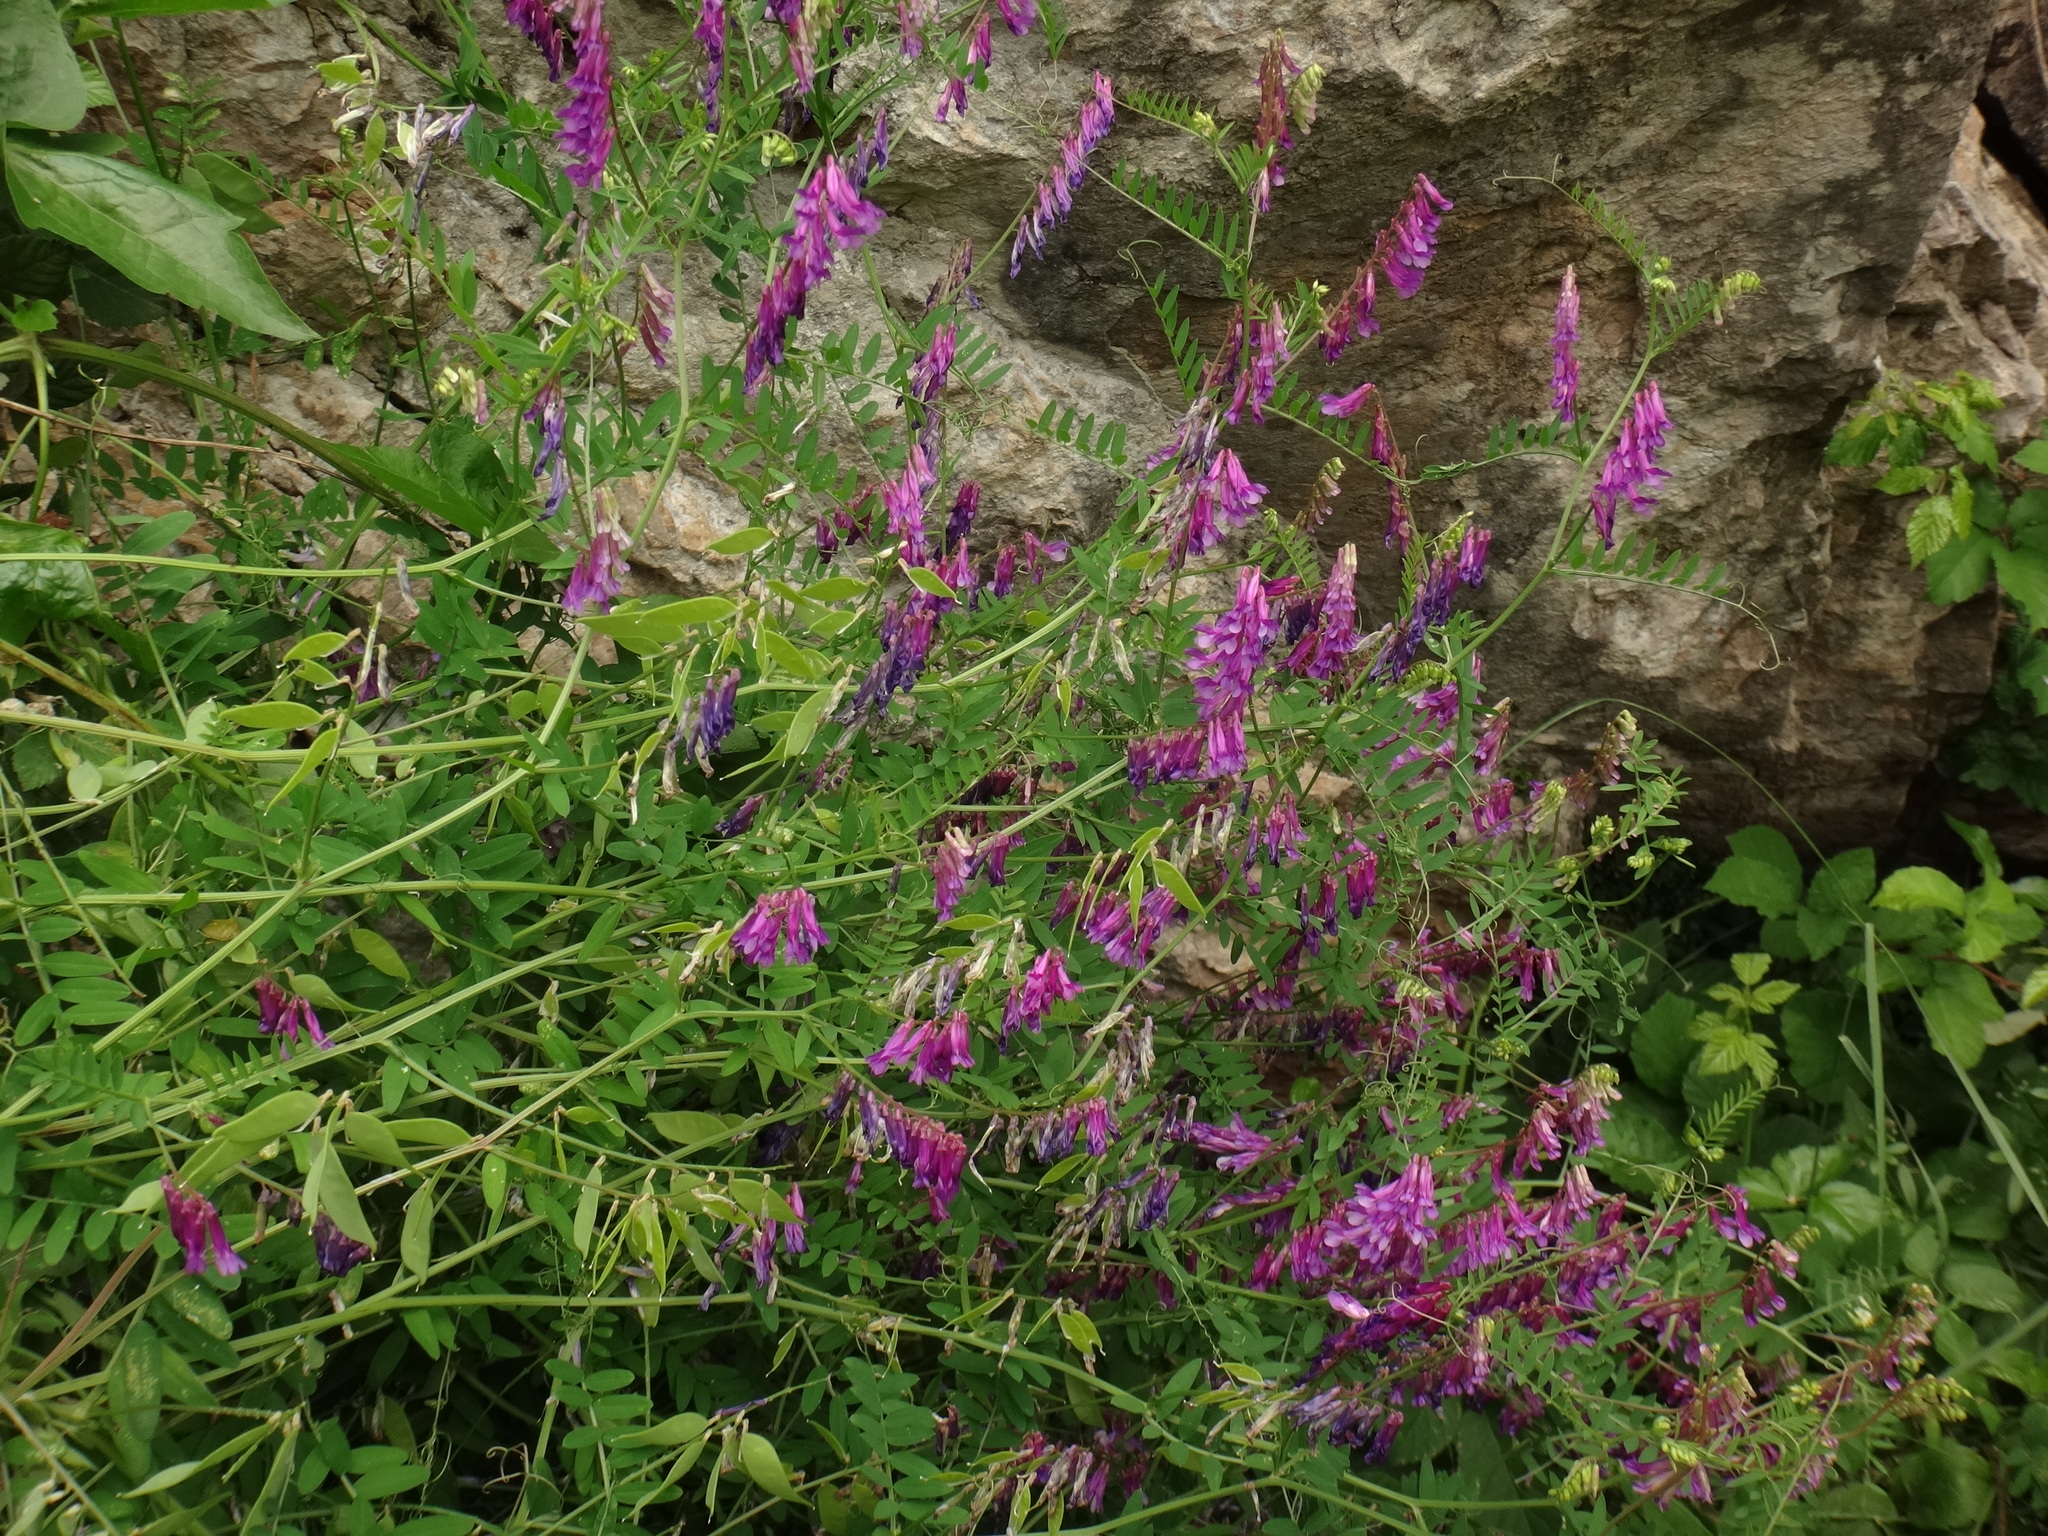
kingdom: Plantae
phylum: Tracheophyta
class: Magnoliopsida
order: Fabales
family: Fabaceae
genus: Vicia
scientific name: Vicia villosa
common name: Fodder vetch
